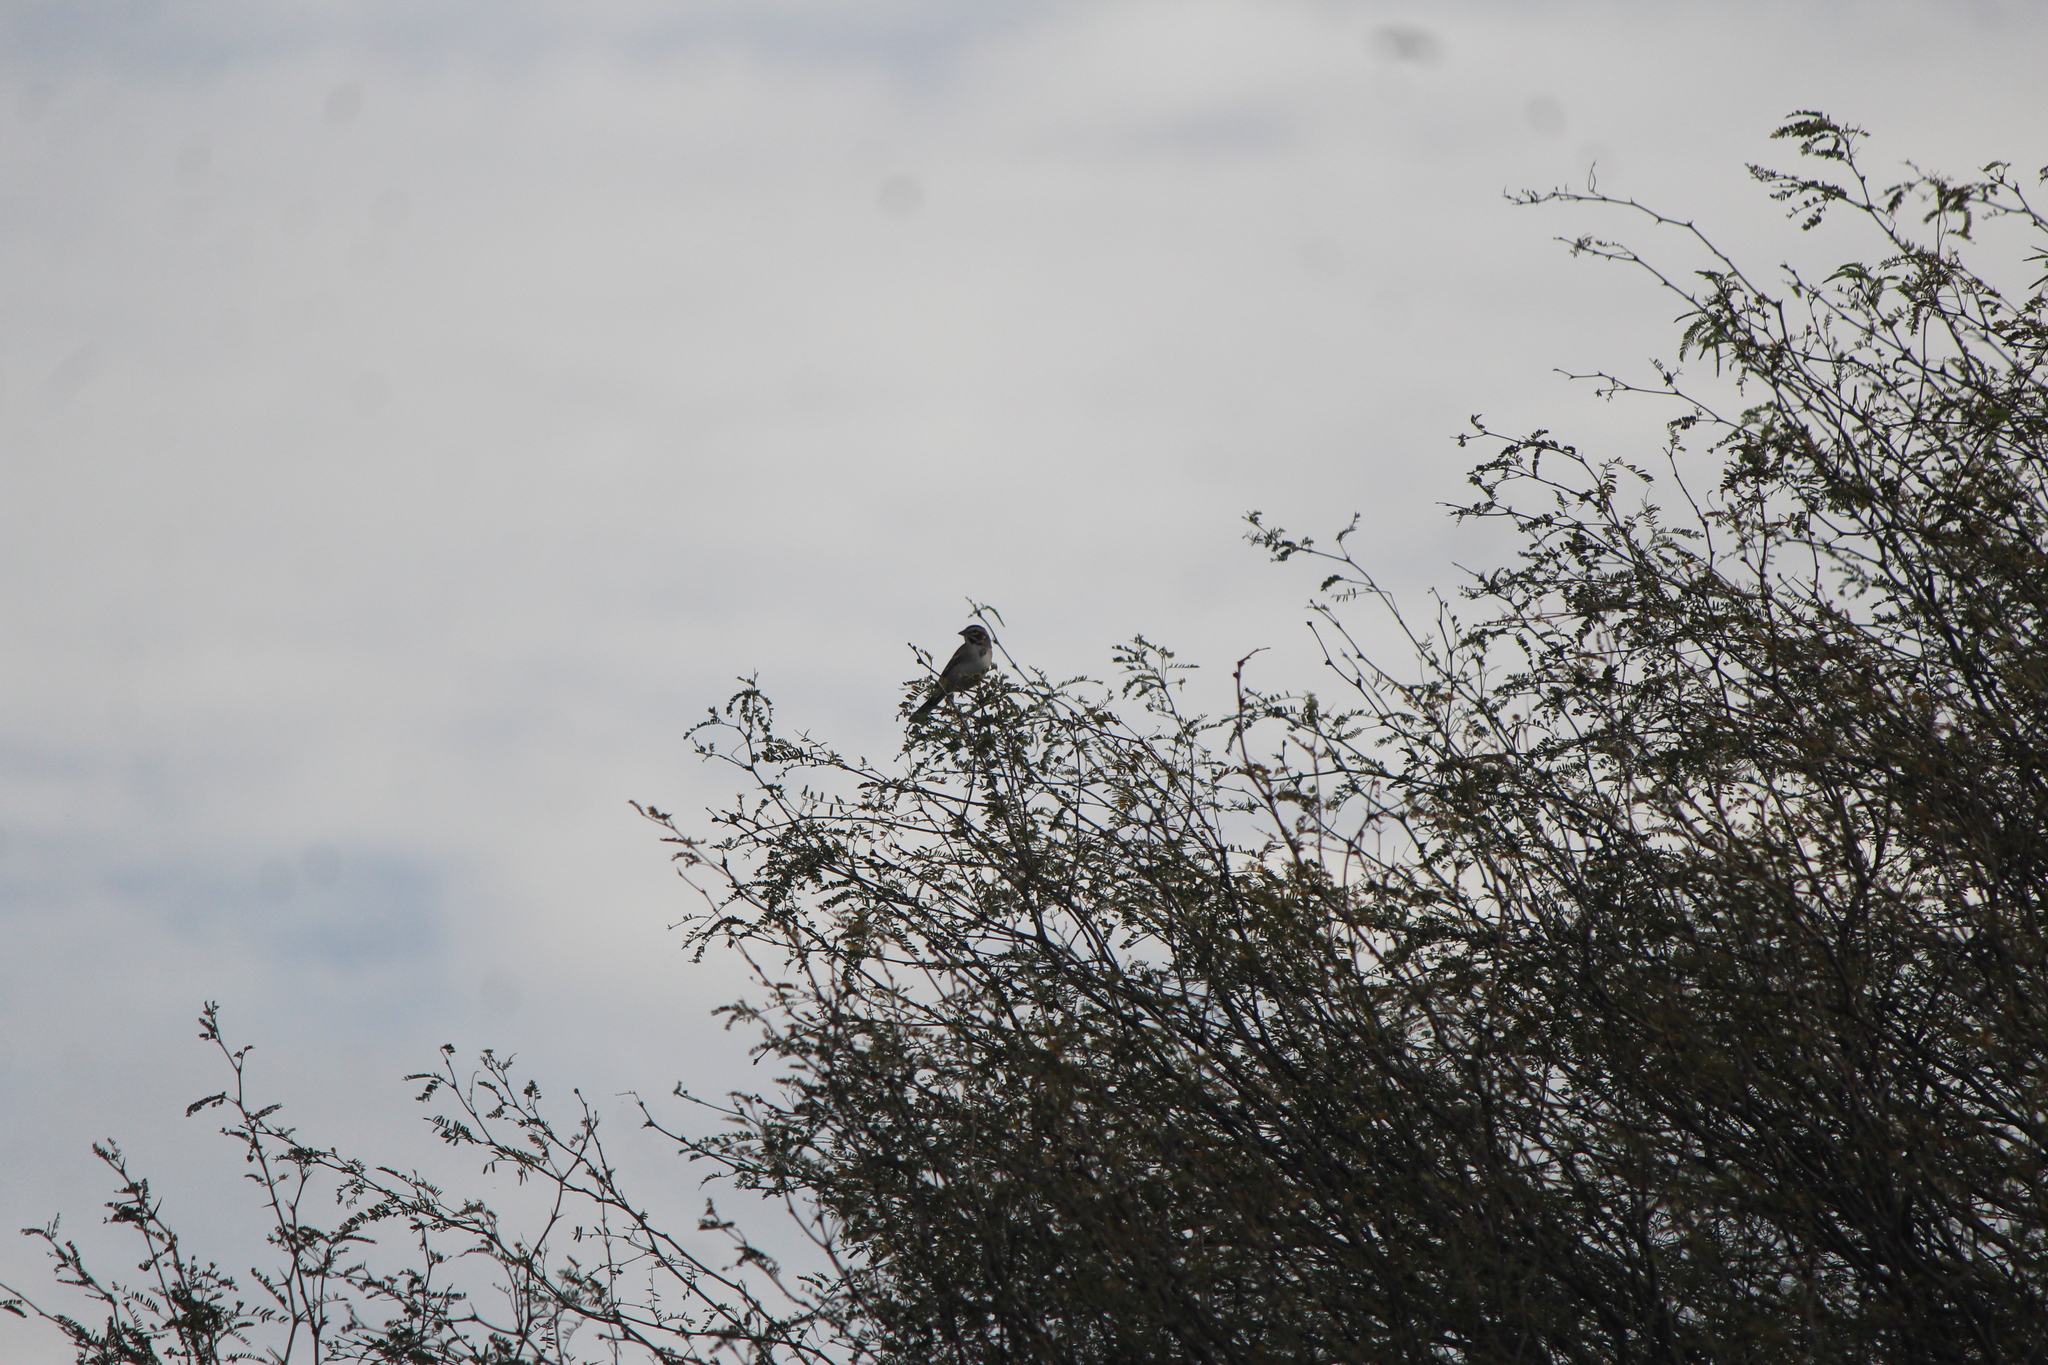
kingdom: Animalia
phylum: Chordata
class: Aves
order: Passeriformes
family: Passerellidae
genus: Chondestes
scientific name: Chondestes grammacus
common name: Lark sparrow
